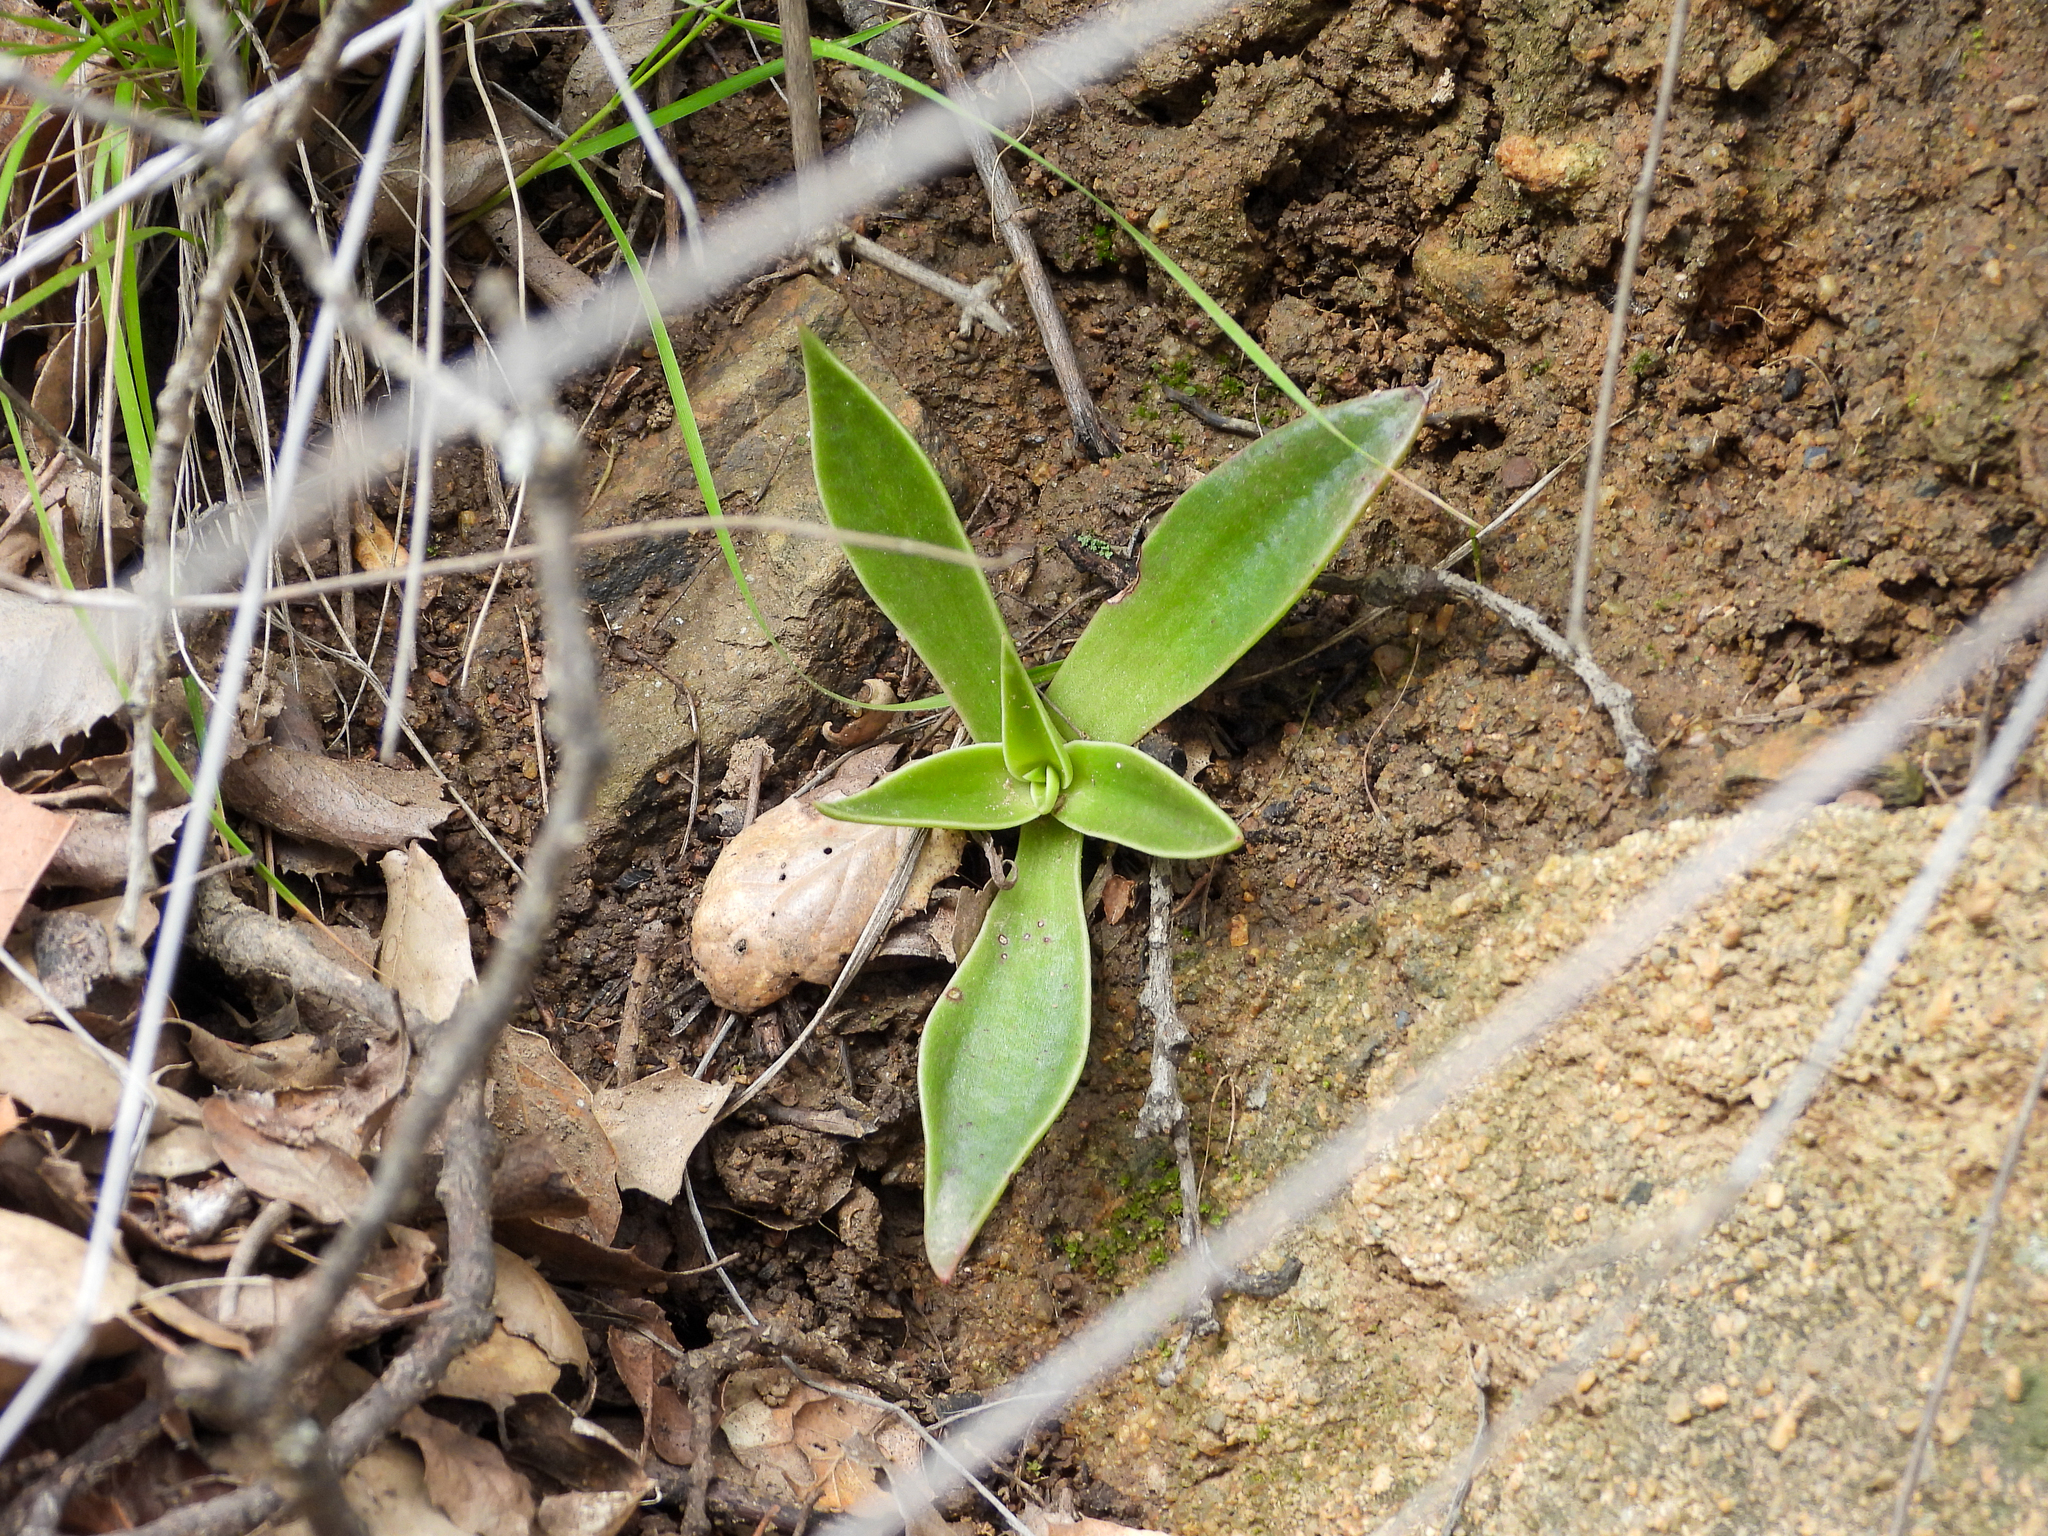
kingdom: Plantae
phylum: Tracheophyta
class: Magnoliopsida
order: Saxifragales
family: Crassulaceae
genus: Dudleya
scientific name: Dudleya lanceolata
